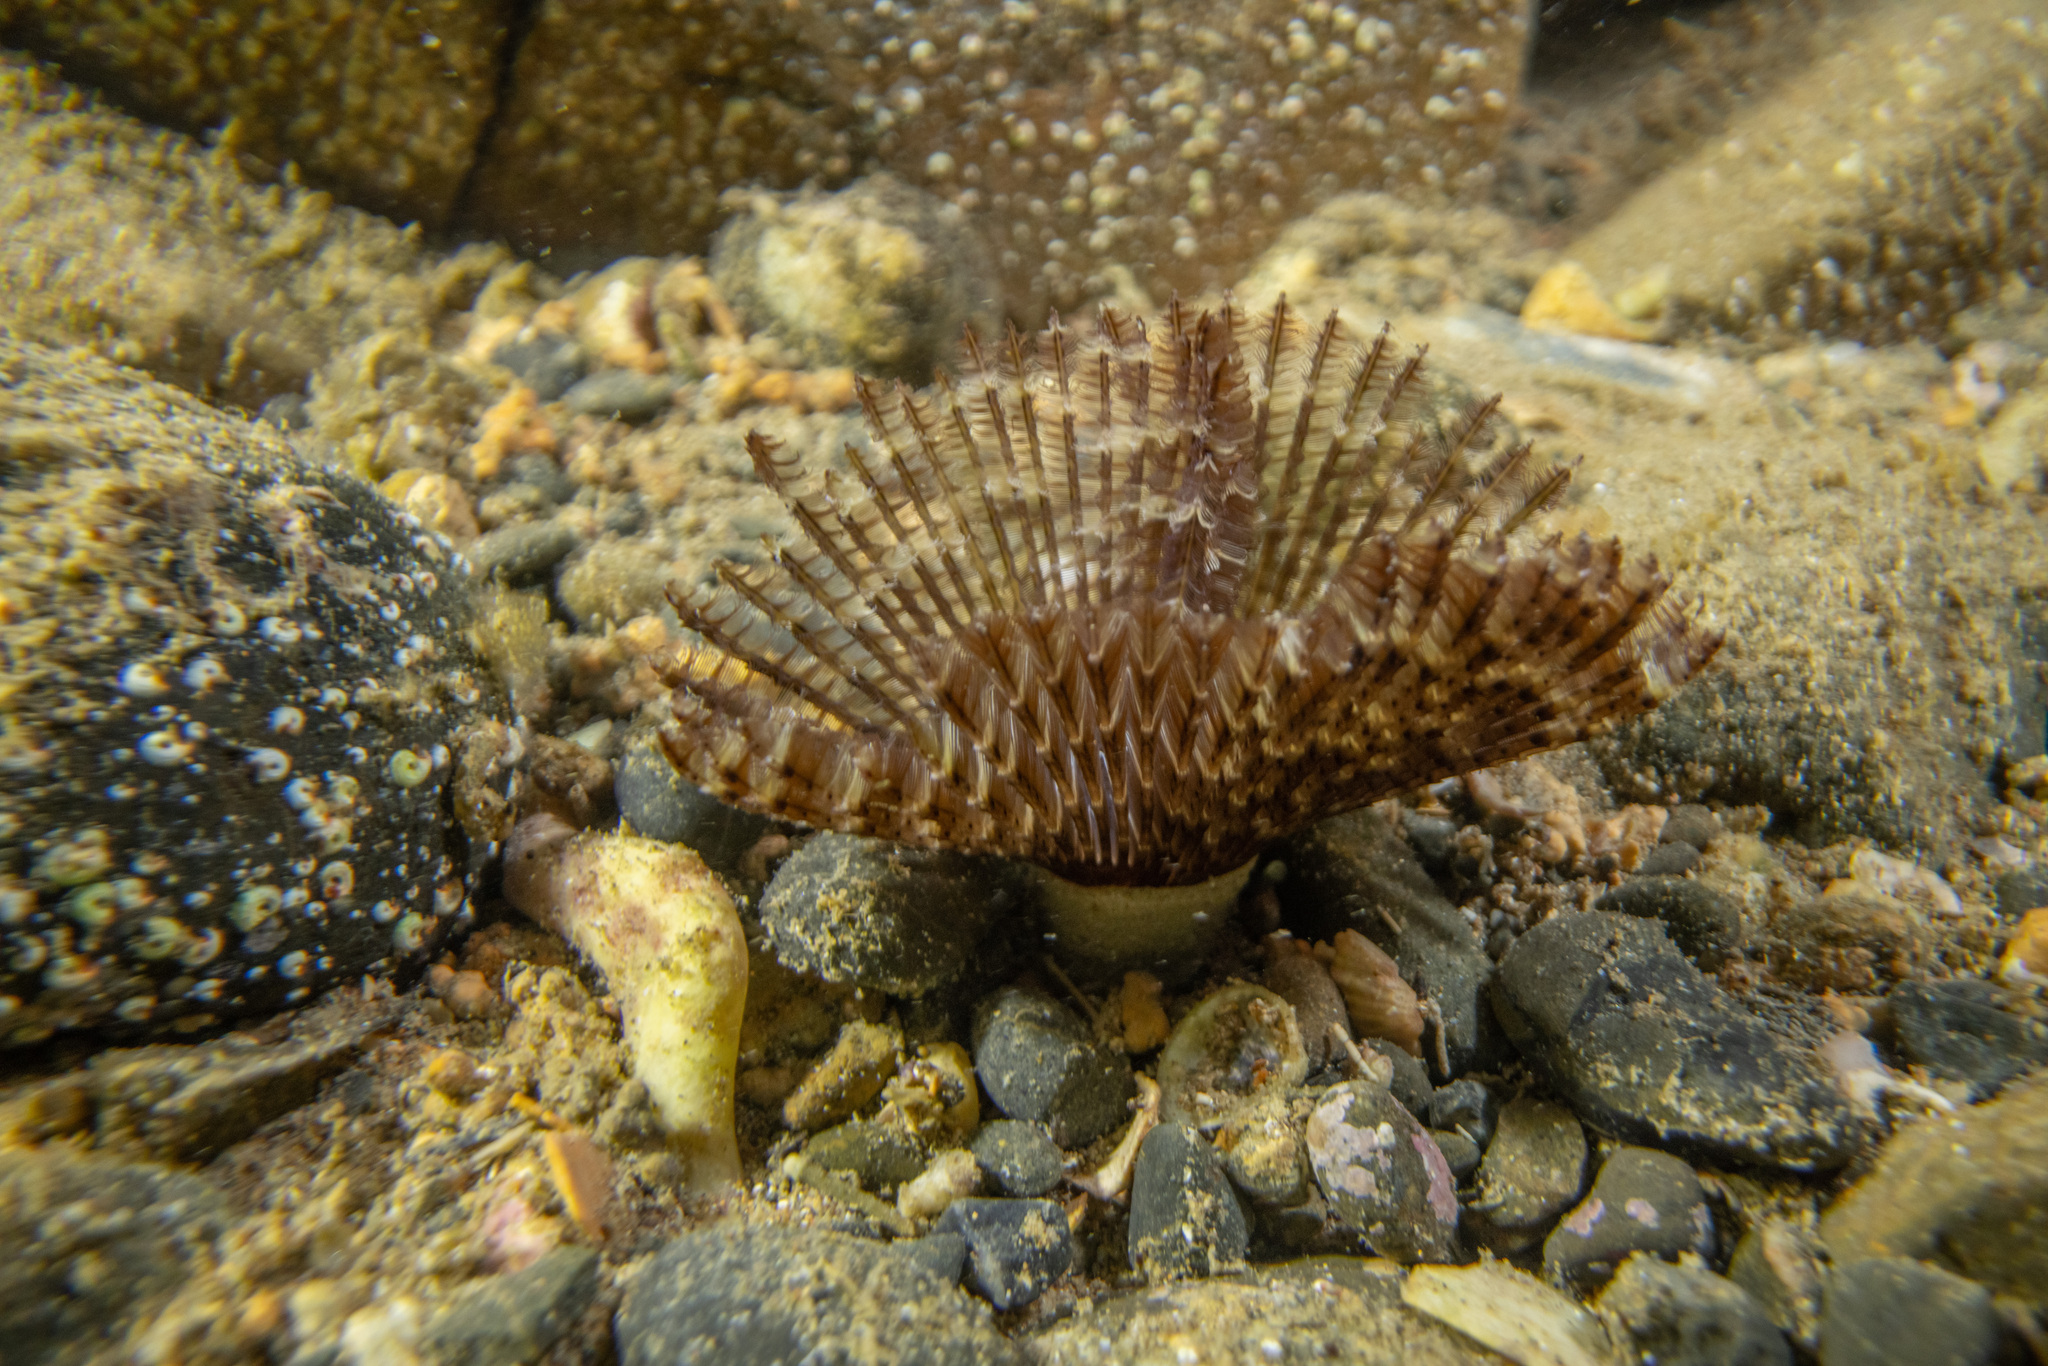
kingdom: Animalia
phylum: Annelida
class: Polychaeta
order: Sabellida
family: Sabellidae
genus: Pseudobranchiomma
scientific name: Pseudobranchiomma grandis
